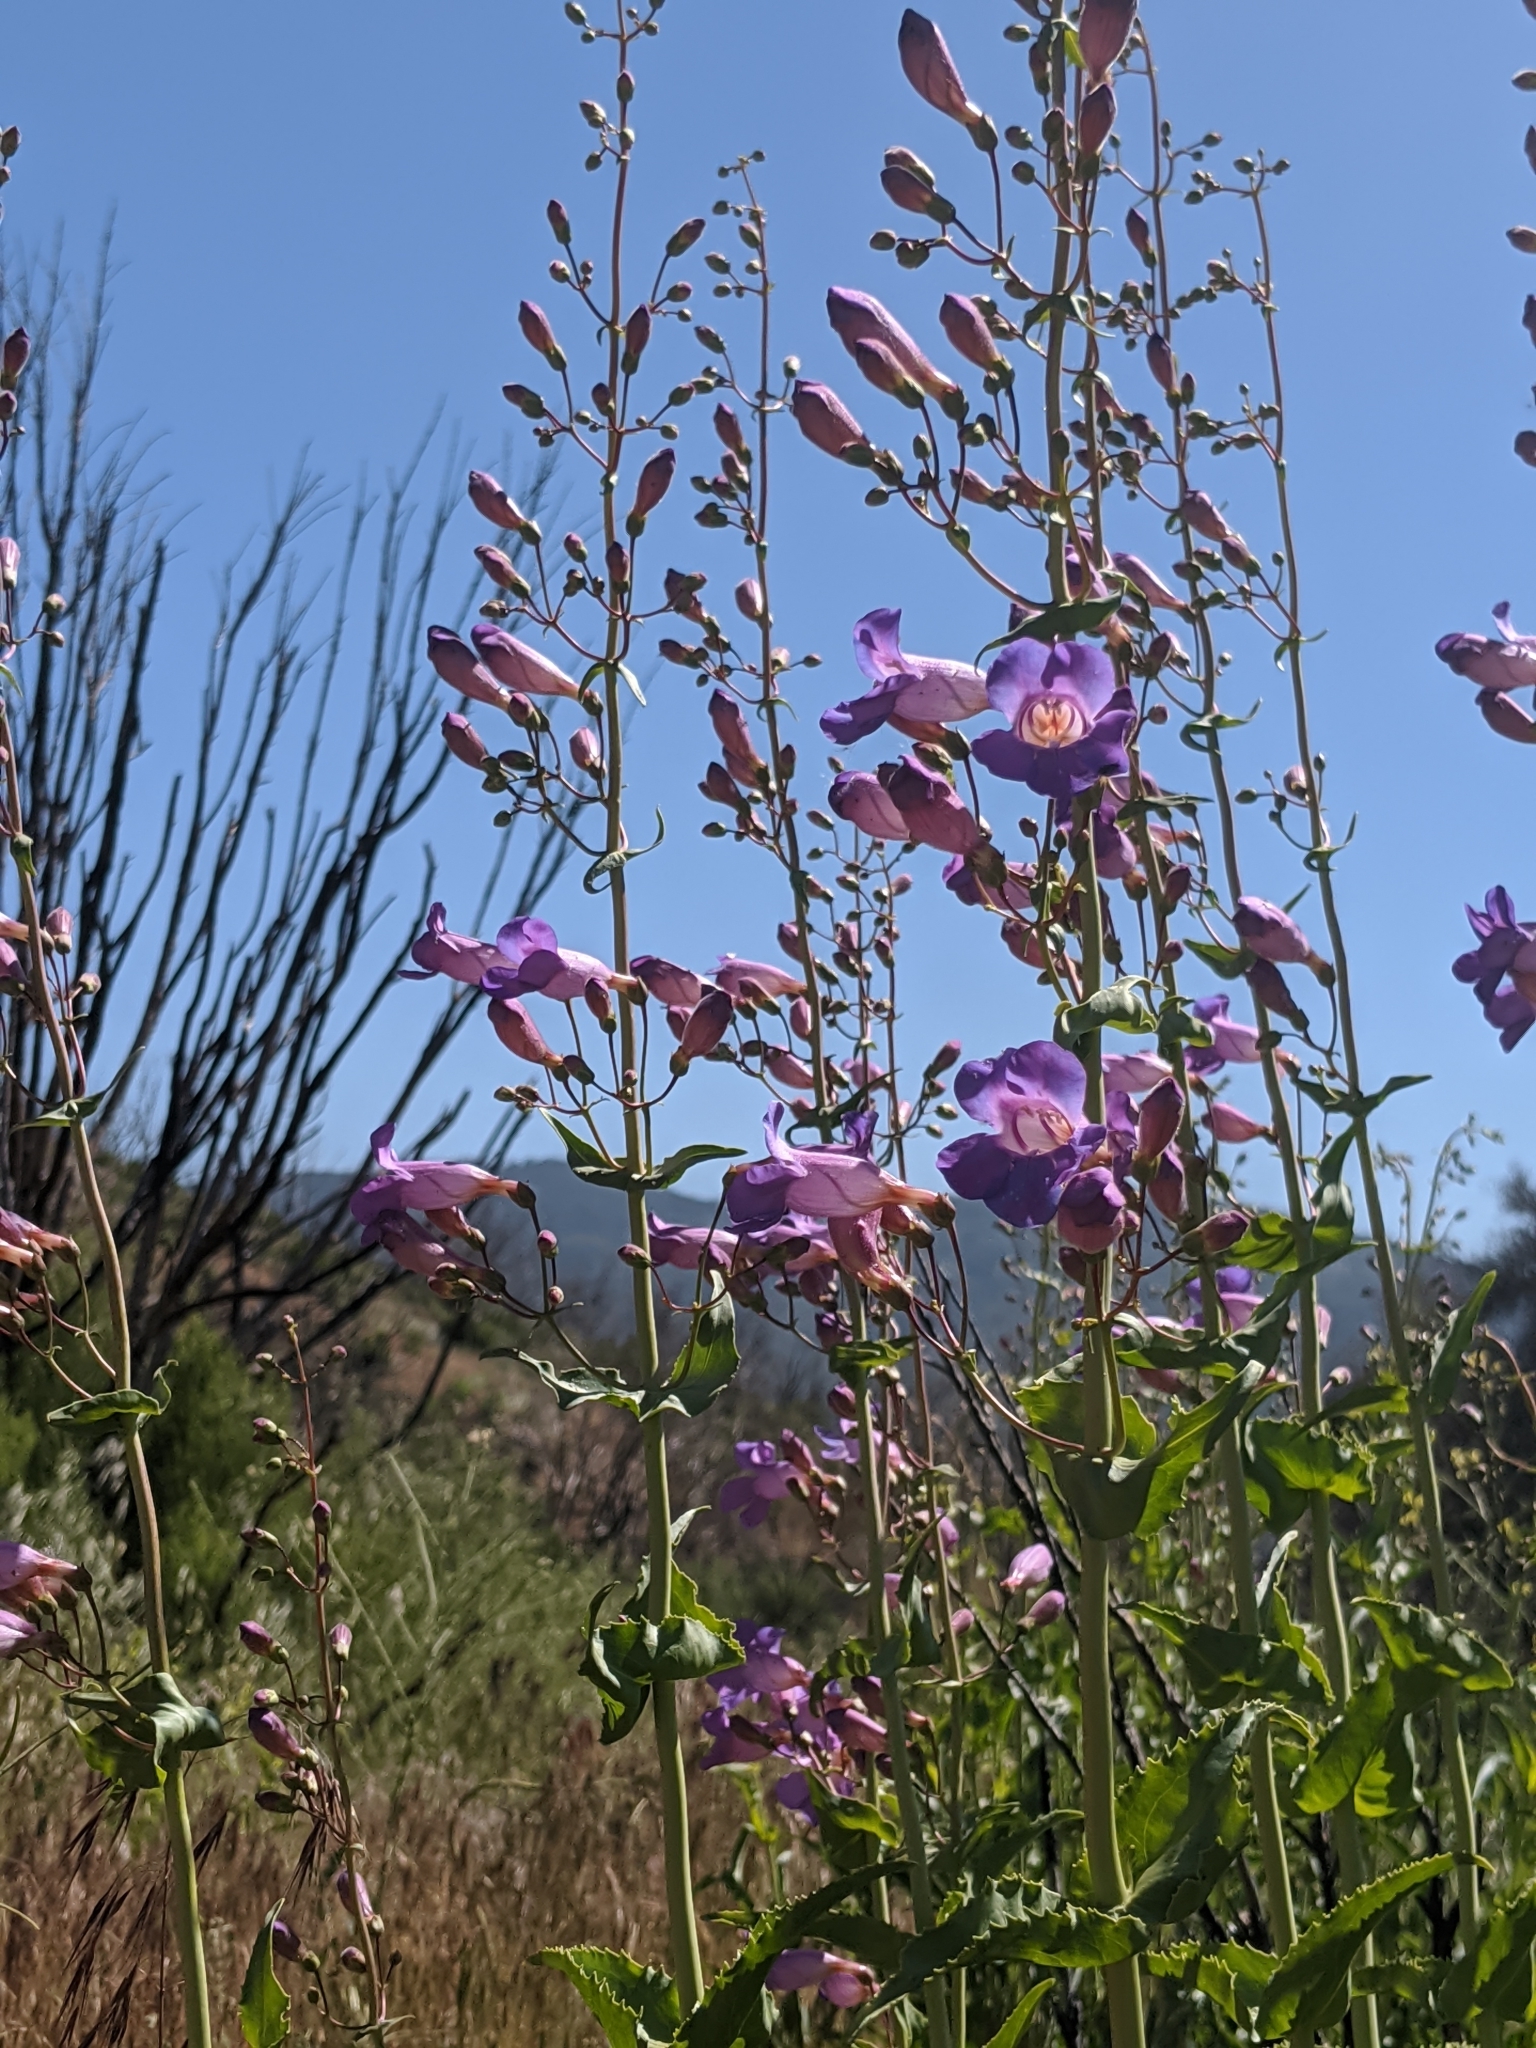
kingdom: Plantae
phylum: Tracheophyta
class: Magnoliopsida
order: Lamiales
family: Plantaginaceae
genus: Penstemon
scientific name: Penstemon spectabilis
